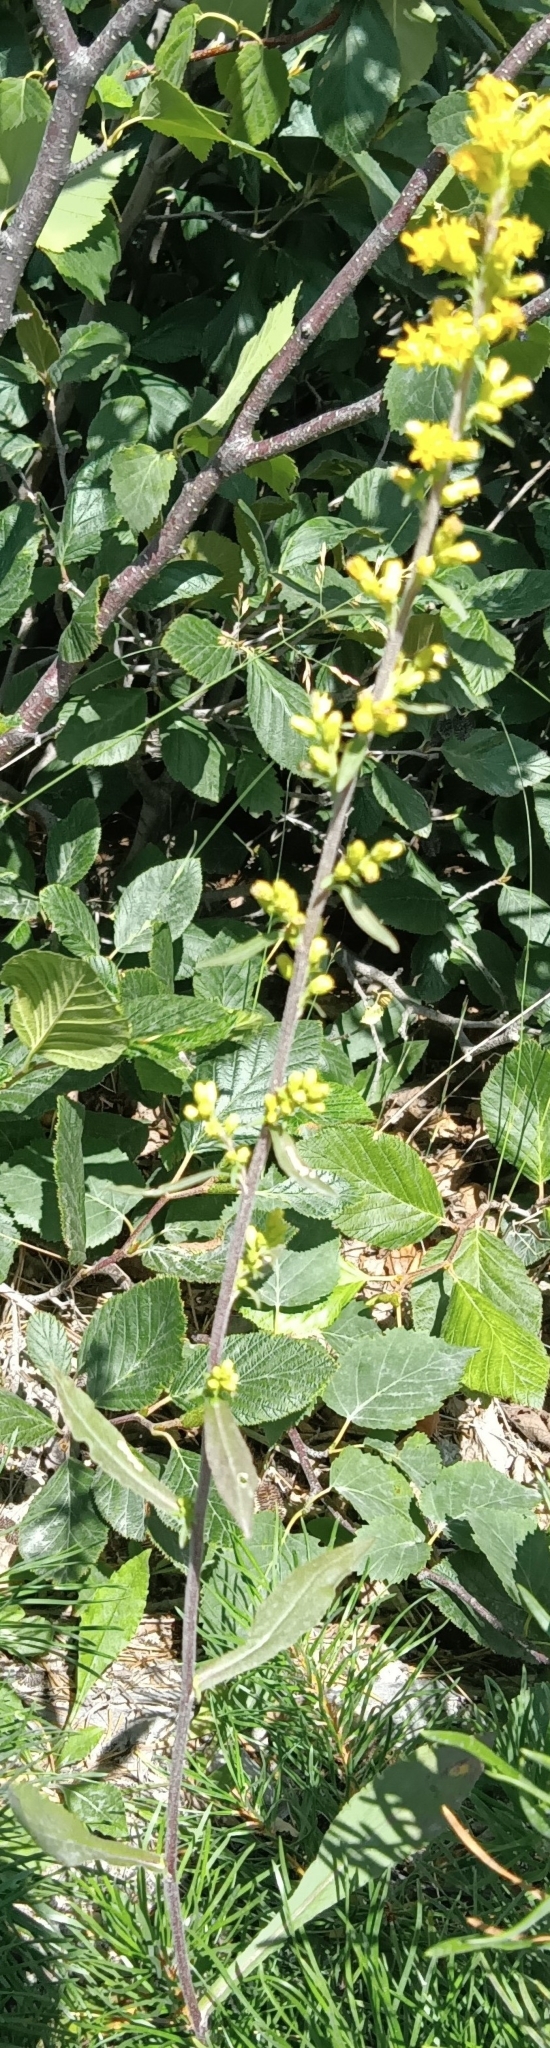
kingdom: Plantae
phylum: Tracheophyta
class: Magnoliopsida
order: Asterales
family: Asteraceae
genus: Solidago
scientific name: Solidago nemoralis
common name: Grey goldenrod
